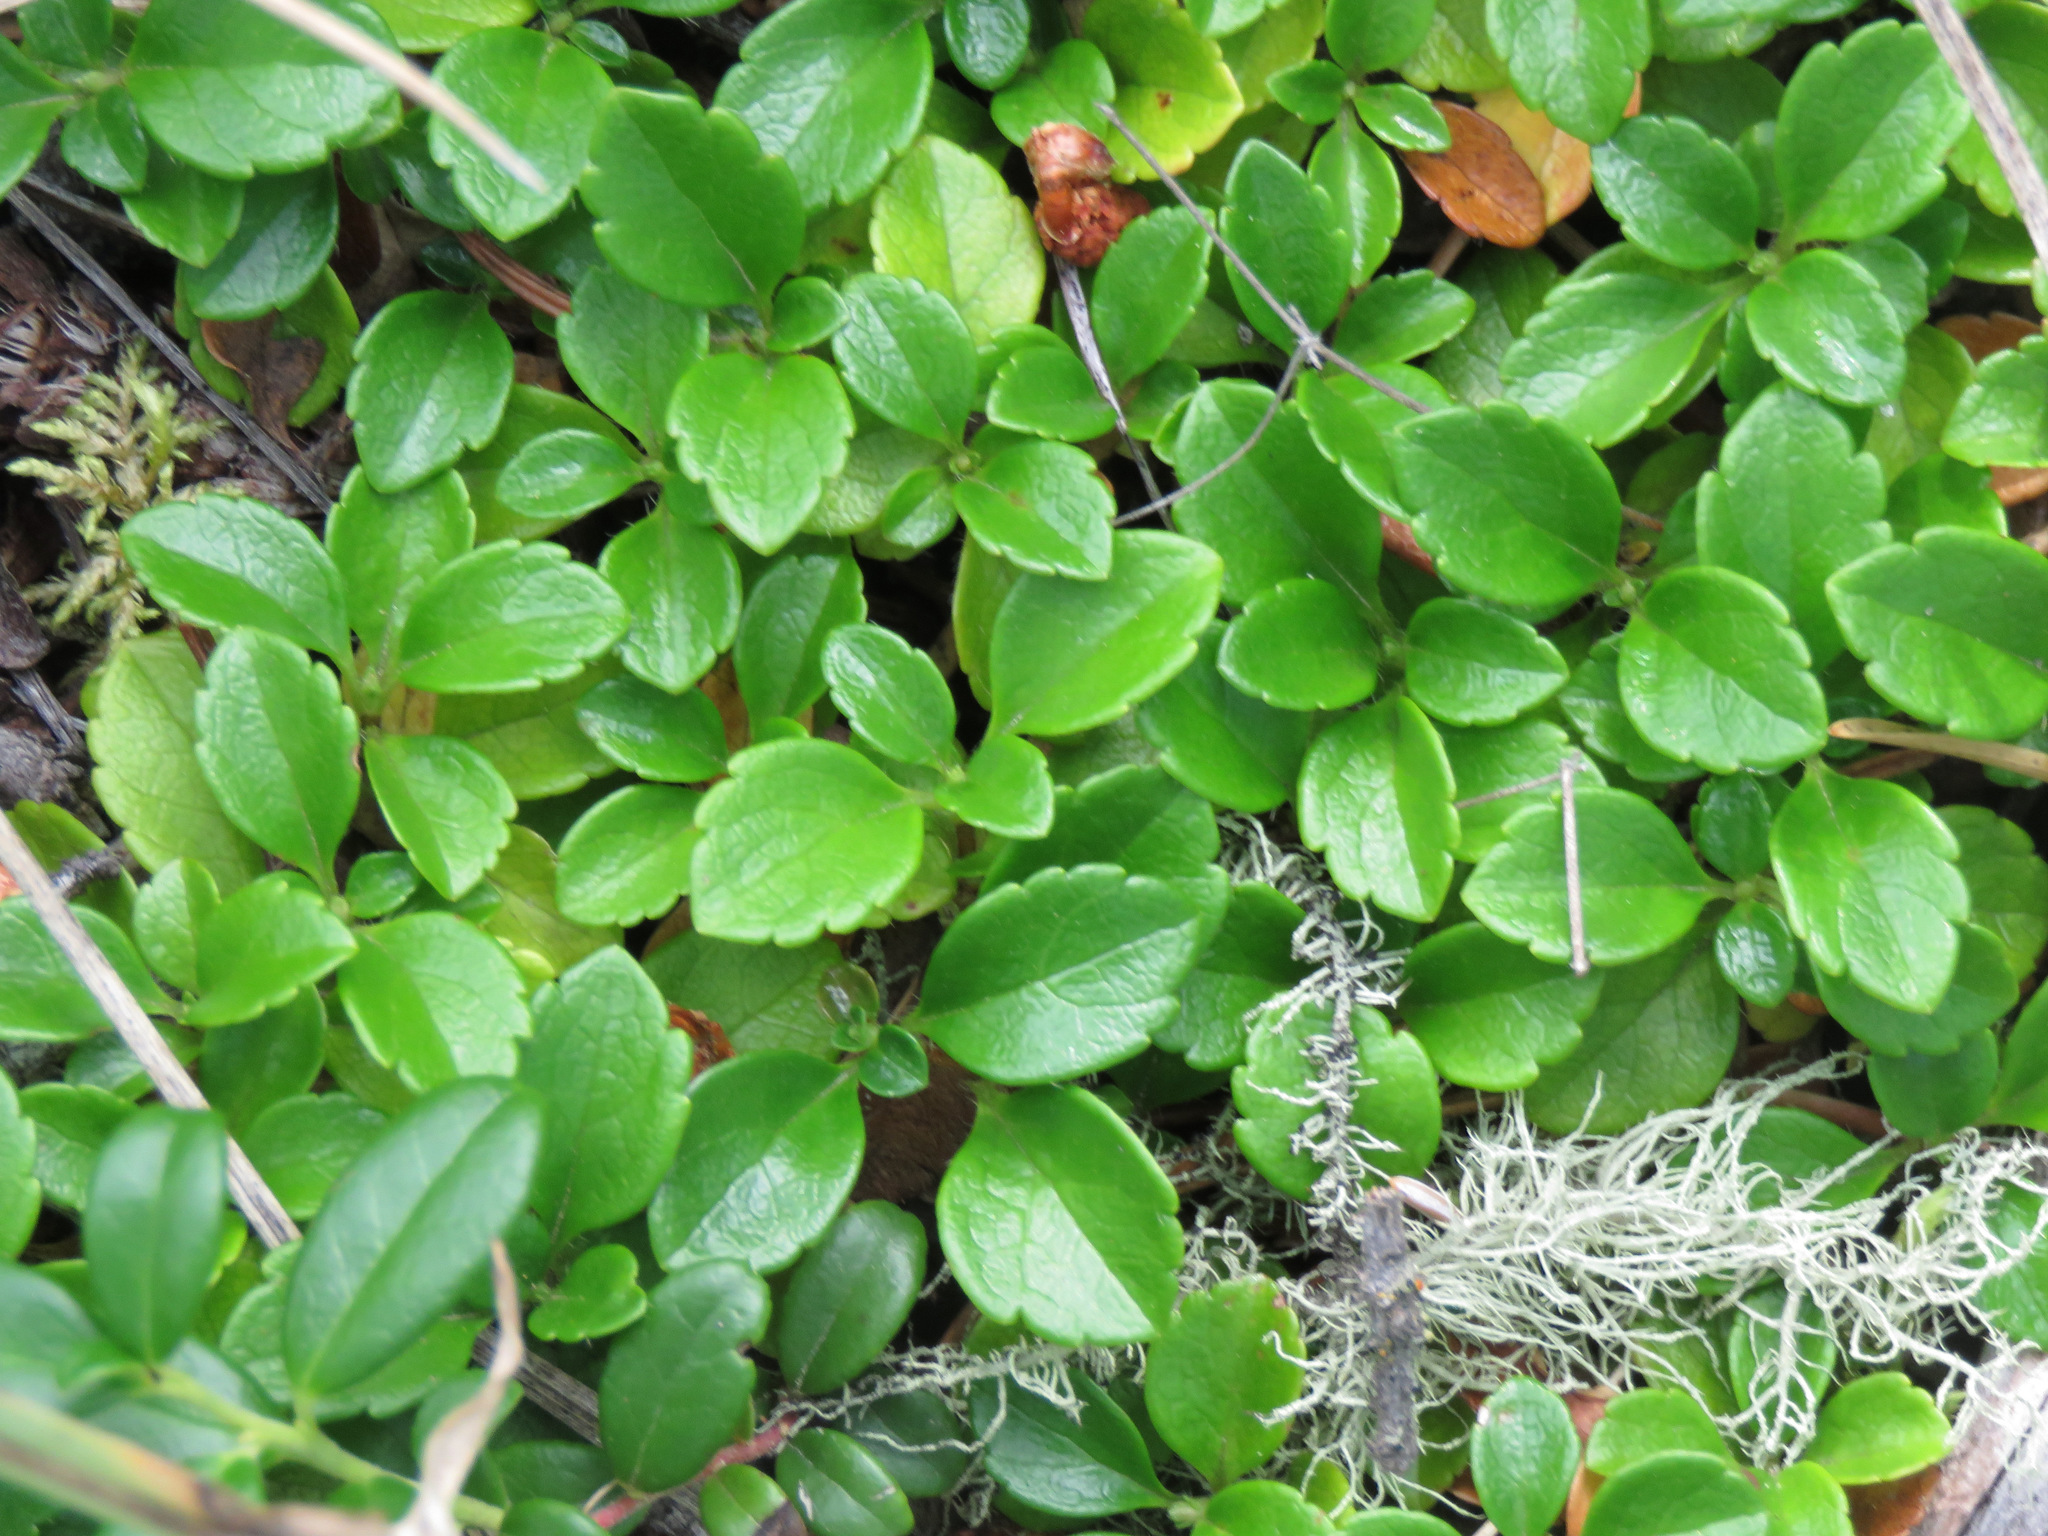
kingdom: Plantae
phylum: Tracheophyta
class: Magnoliopsida
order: Dipsacales
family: Caprifoliaceae
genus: Linnaea
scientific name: Linnaea borealis
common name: Twinflower
